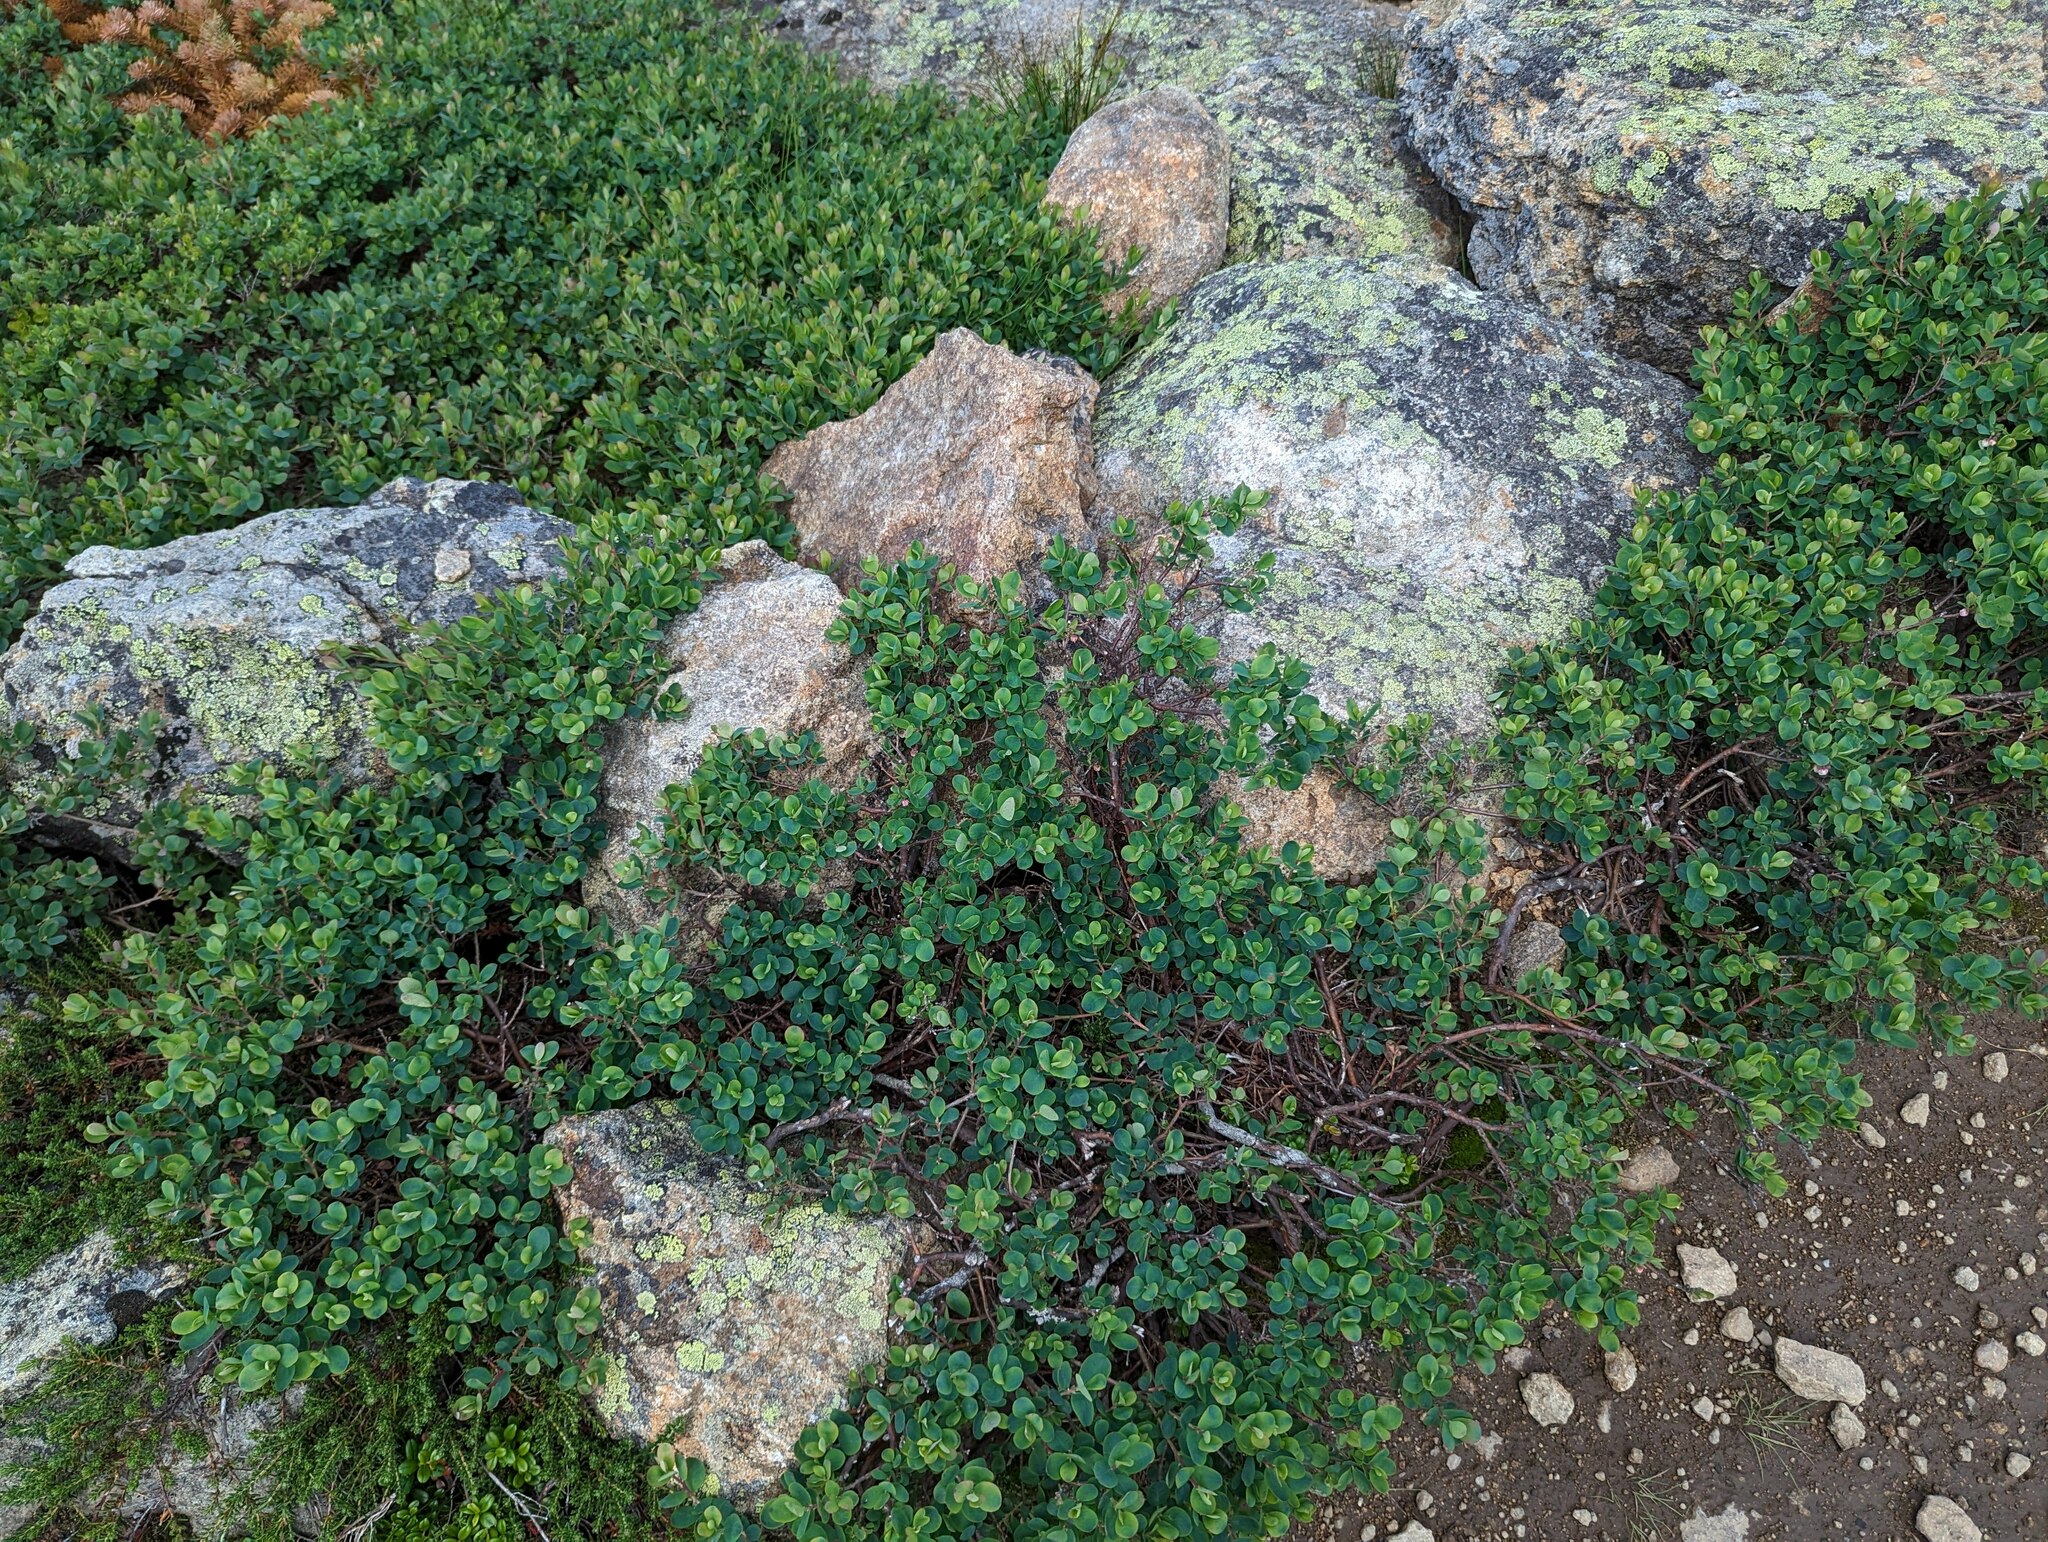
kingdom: Plantae
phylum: Tracheophyta
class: Magnoliopsida
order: Ericales
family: Ericaceae
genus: Vaccinium
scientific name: Vaccinium uliginosum
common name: Bog bilberry
